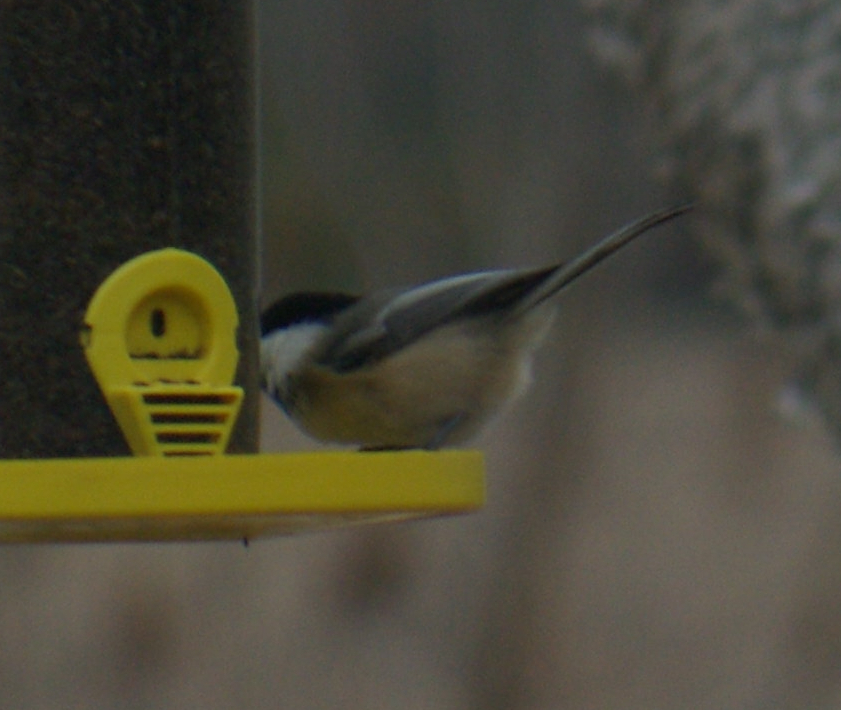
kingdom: Animalia
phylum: Chordata
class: Aves
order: Passeriformes
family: Paridae
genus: Poecile
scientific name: Poecile atricapillus
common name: Black-capped chickadee
